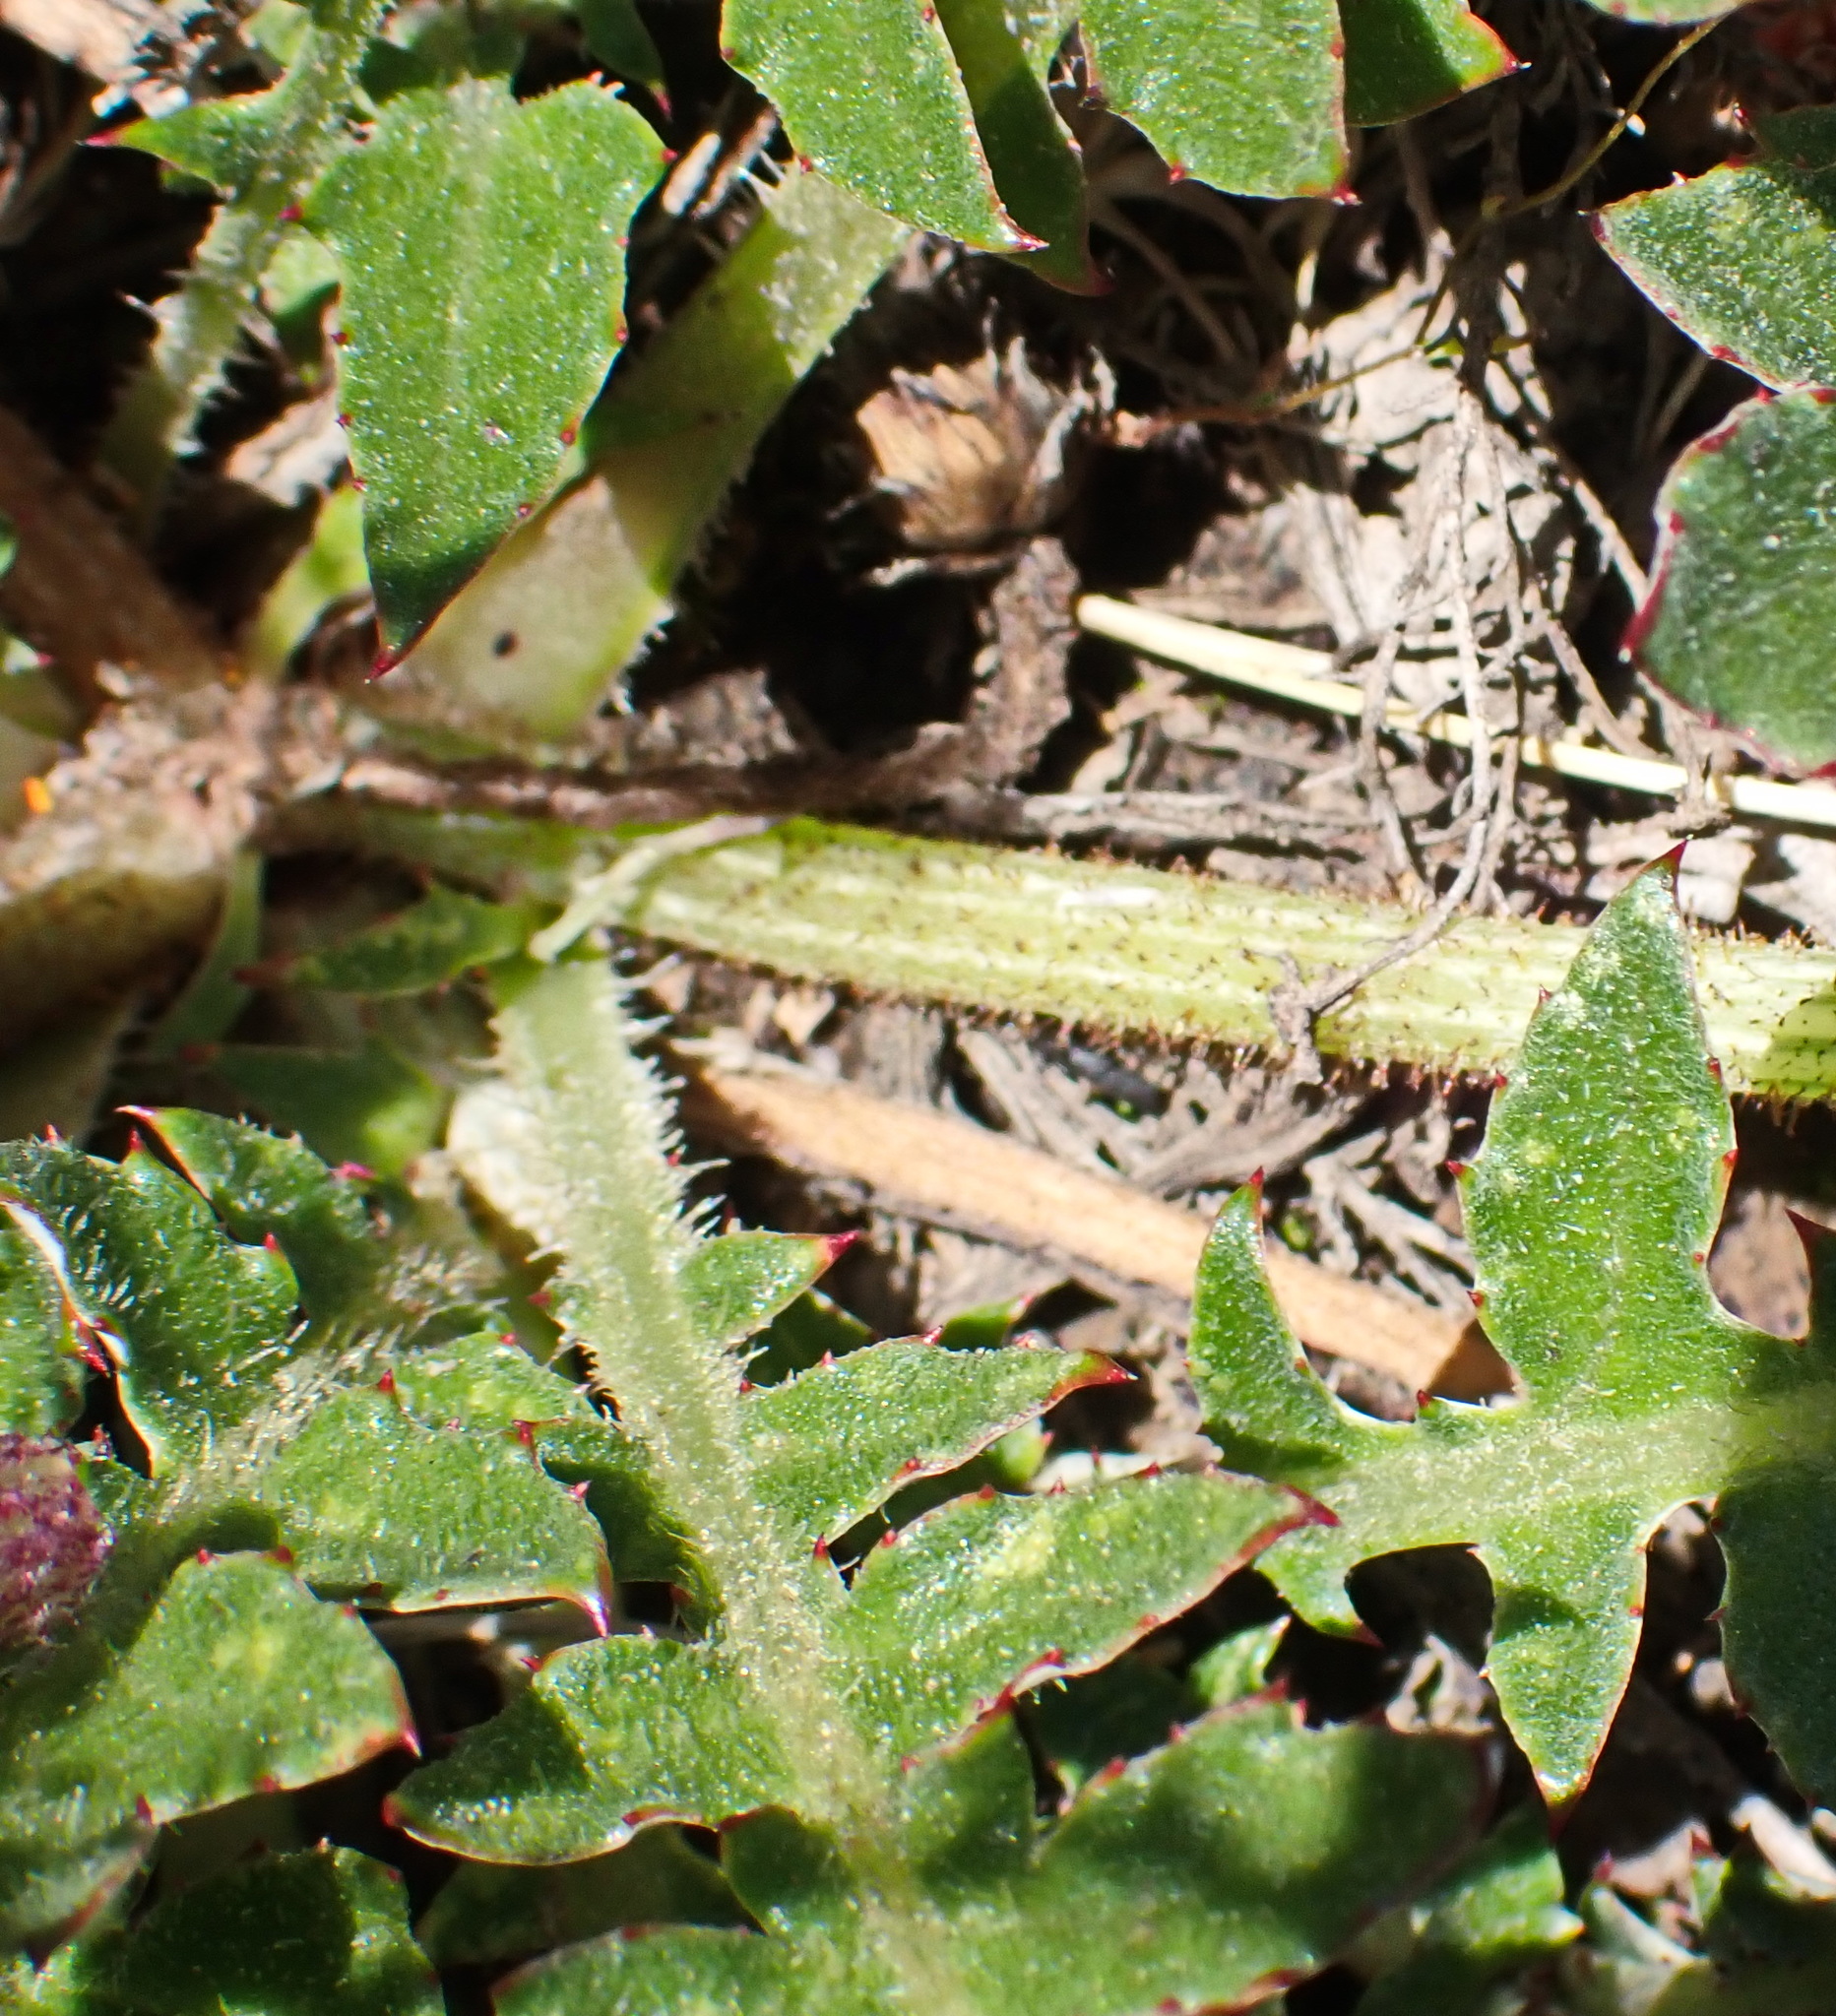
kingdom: Plantae
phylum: Tracheophyta
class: Magnoliopsida
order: Asterales
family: Asteraceae
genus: Arctotis
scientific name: Arctotis acaulis
